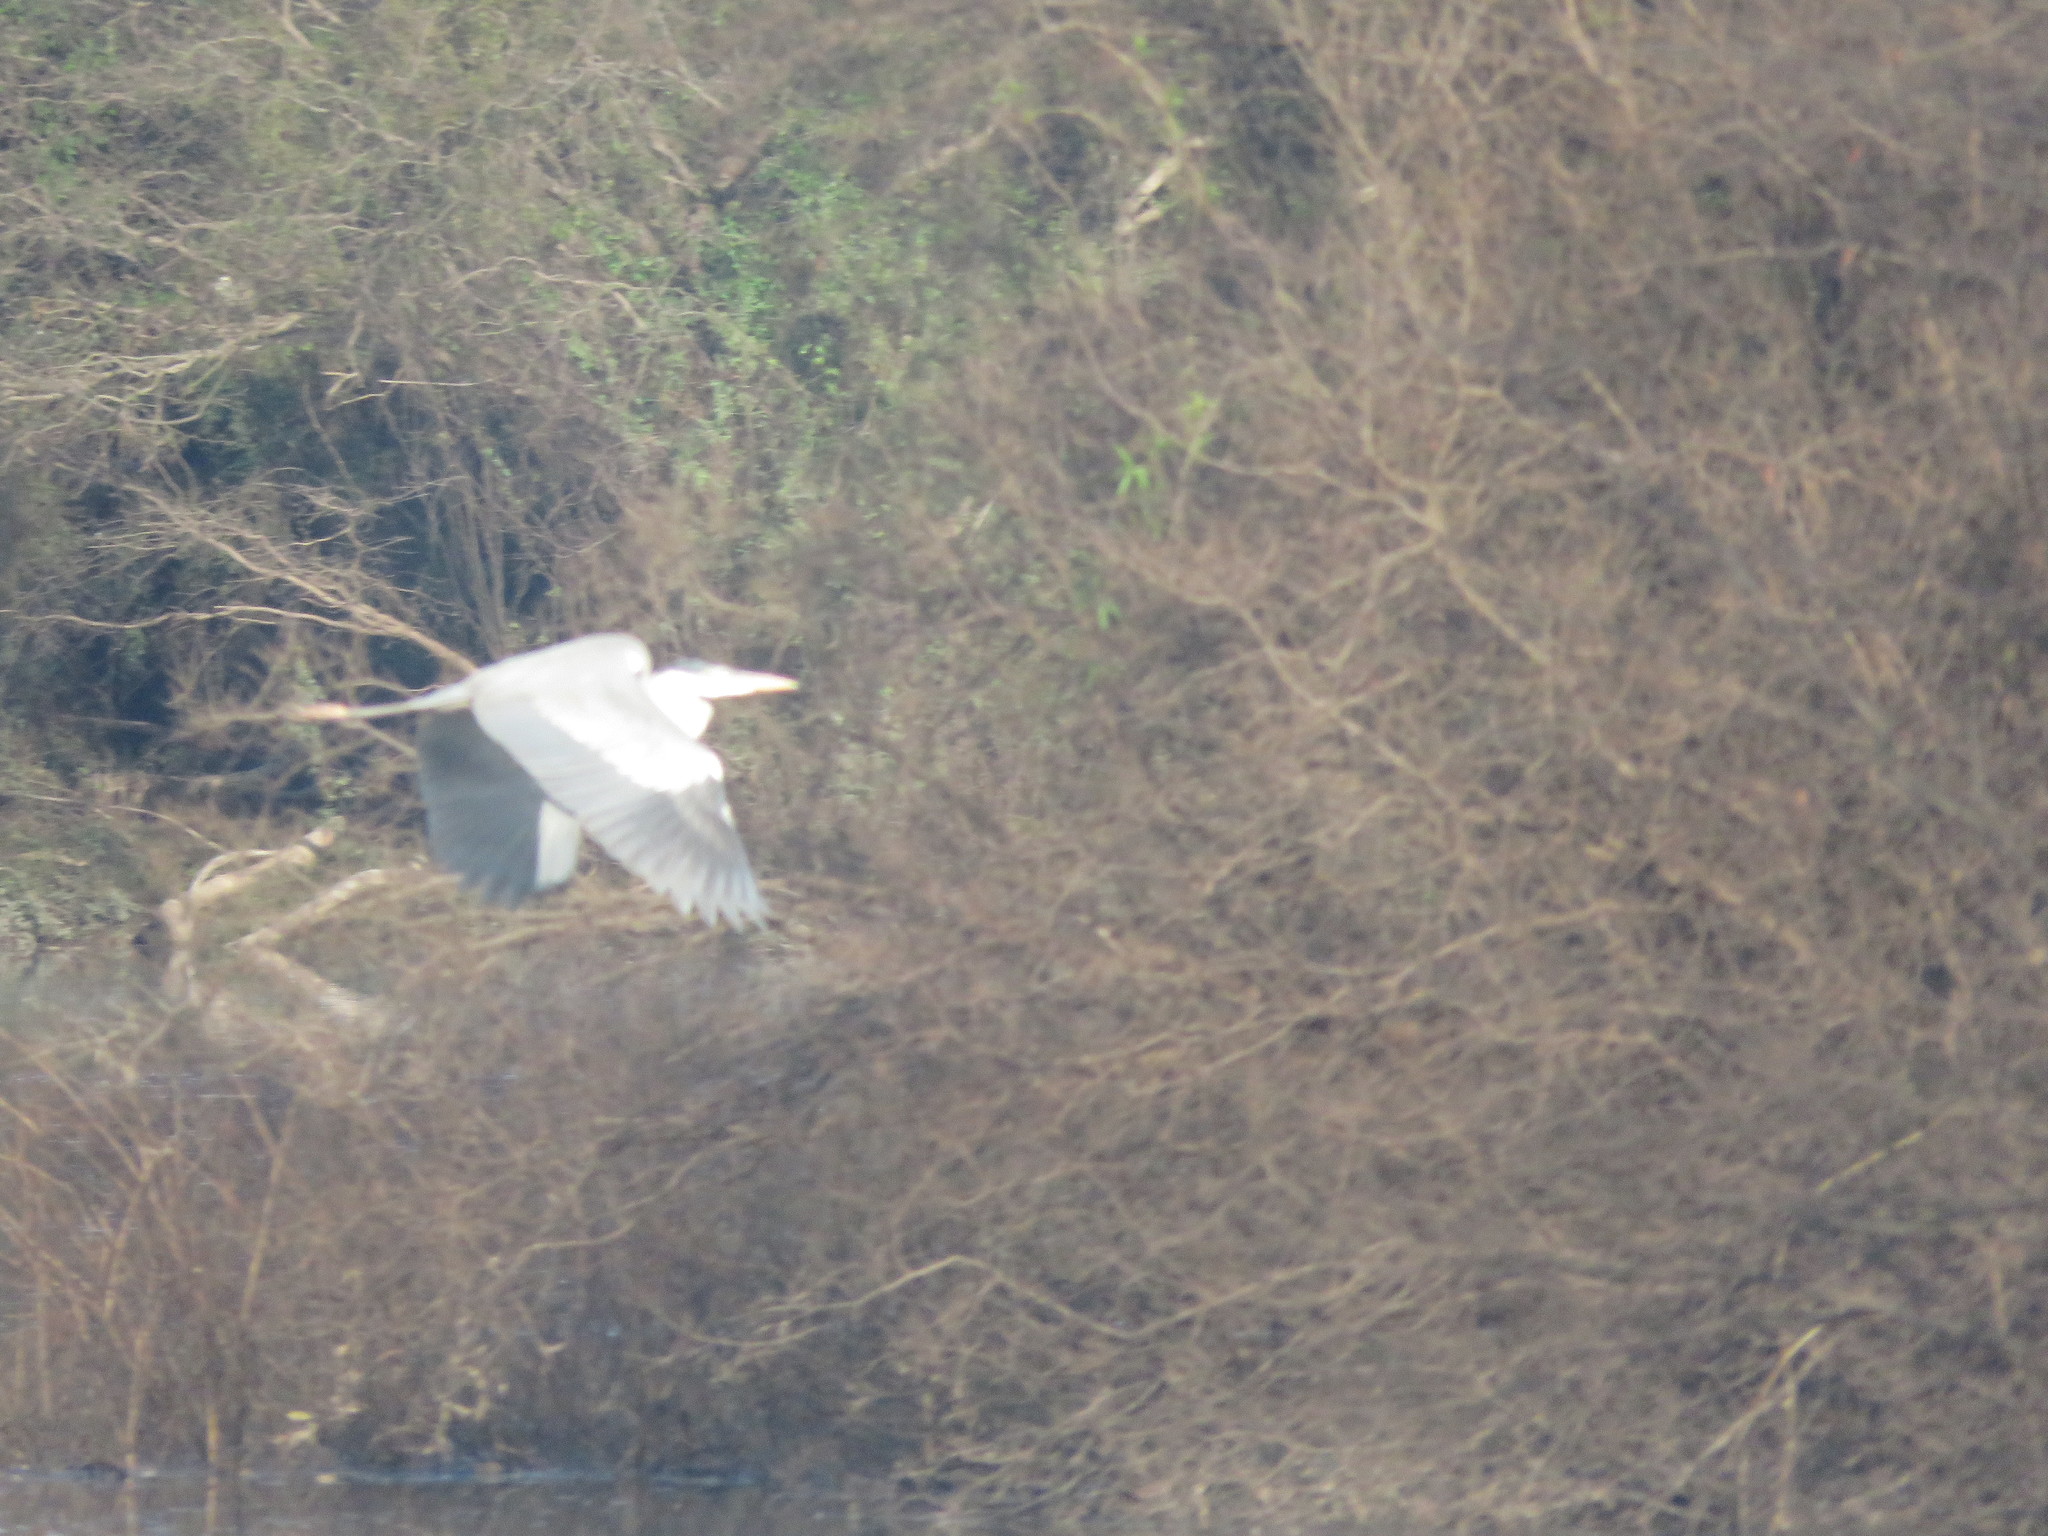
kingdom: Animalia
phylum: Chordata
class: Aves
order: Pelecaniformes
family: Ardeidae
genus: Ardea
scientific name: Ardea cocoi
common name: Cocoi heron
